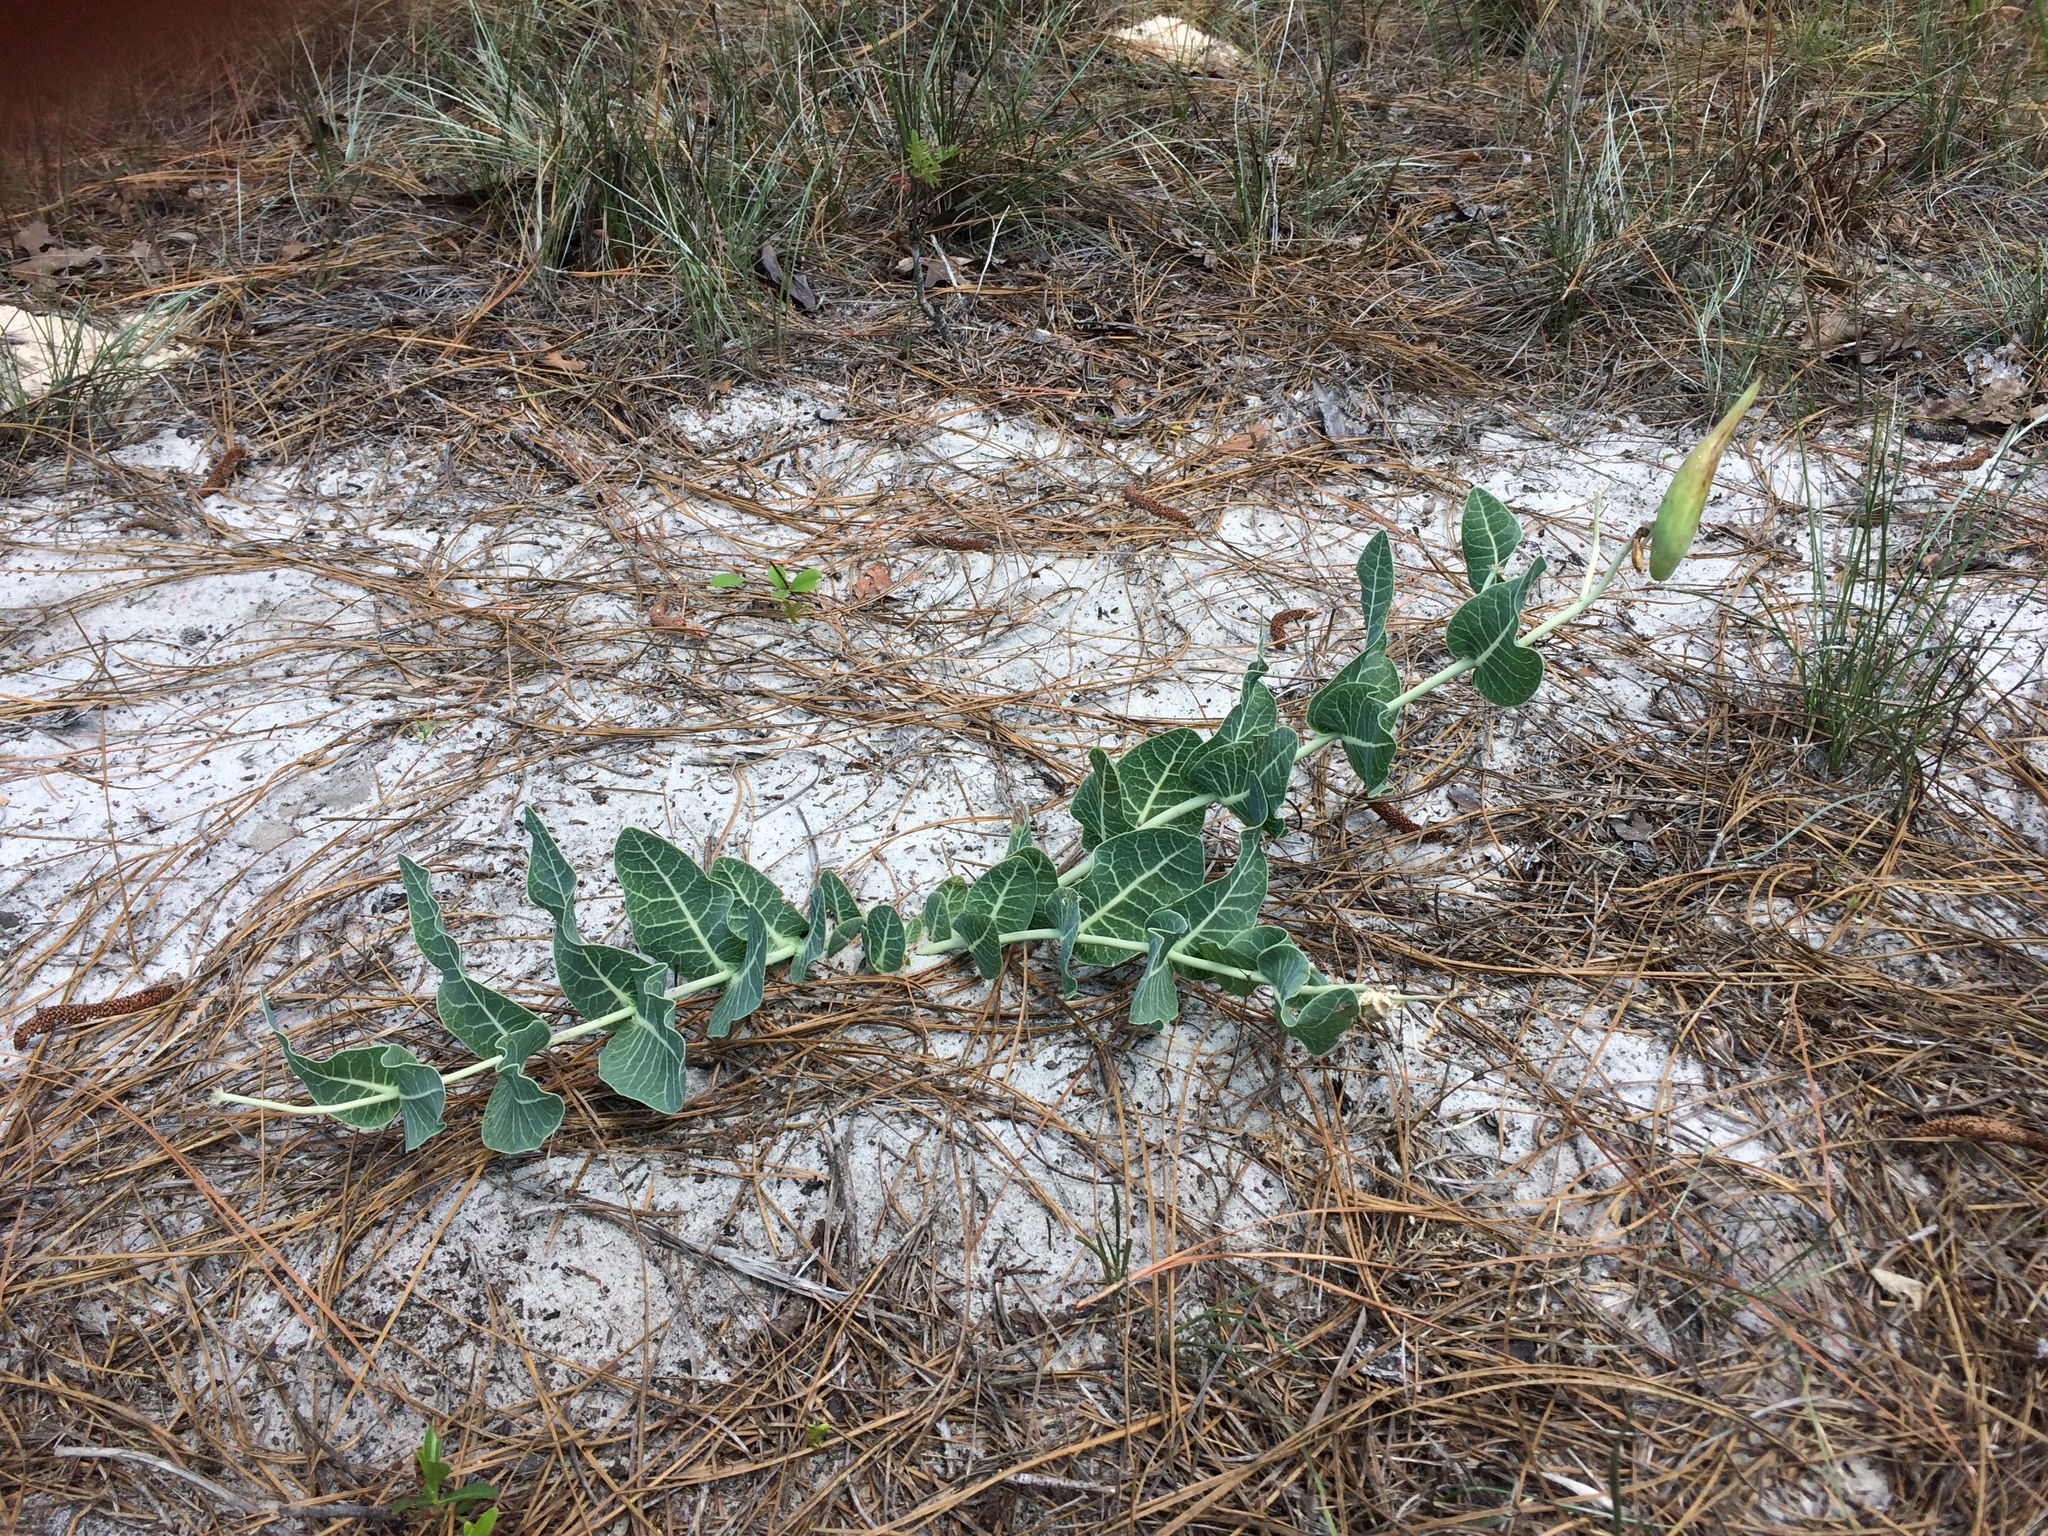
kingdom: Plantae
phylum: Tracheophyta
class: Magnoliopsida
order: Gentianales
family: Apocynaceae
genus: Asclepias
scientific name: Asclepias humistrata
